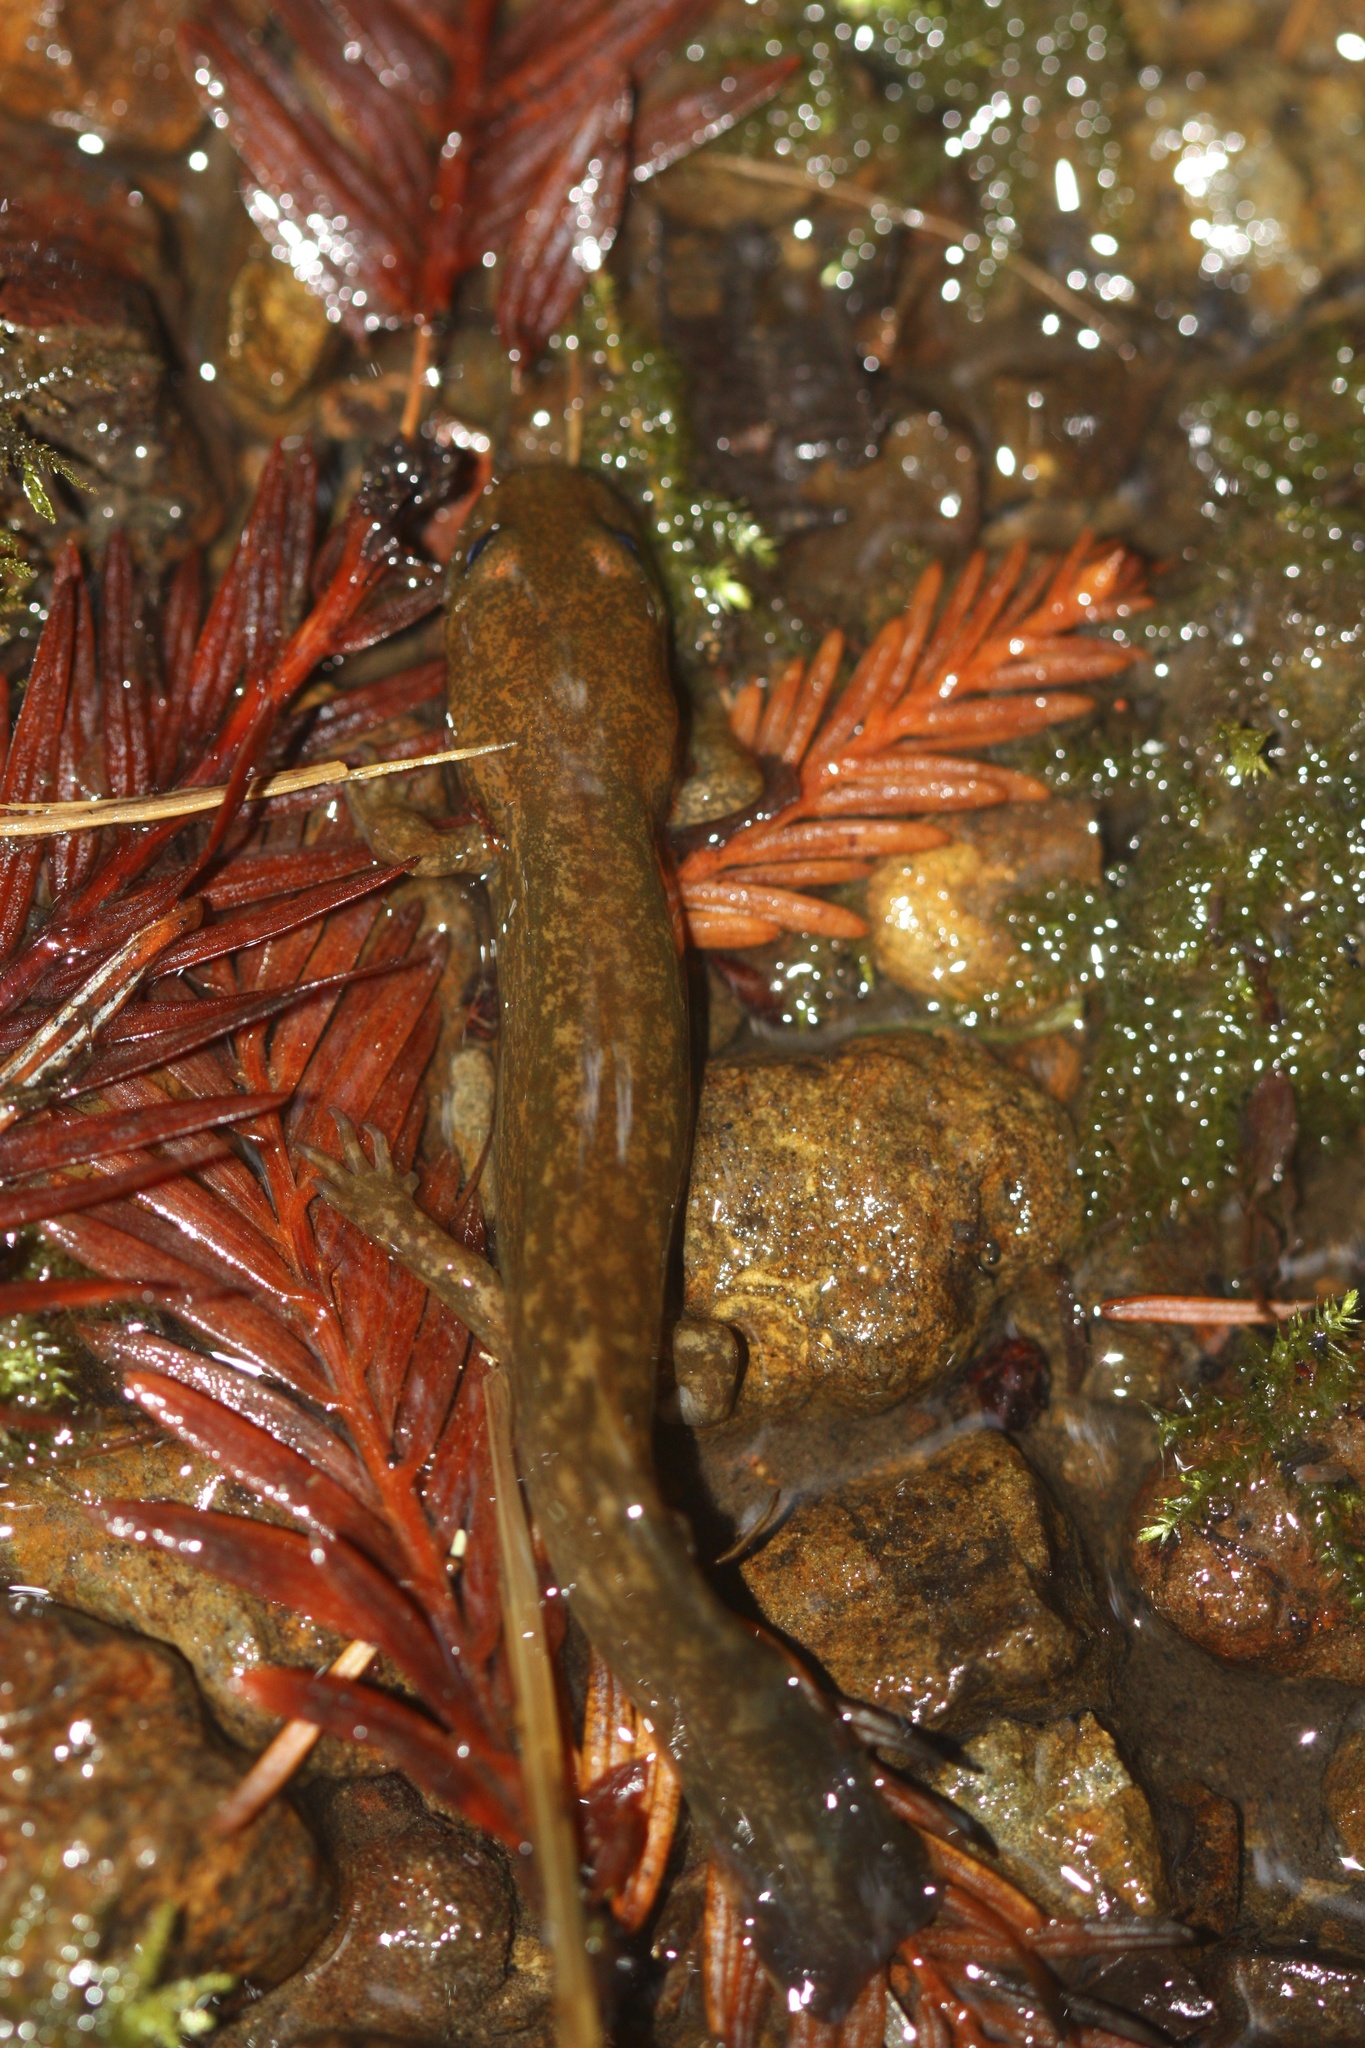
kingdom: Animalia
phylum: Chordata
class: Amphibia
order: Caudata
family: Ambystomatidae
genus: Dicamptodon
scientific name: Dicamptodon tenebrosus
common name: Coastal giant salamander
